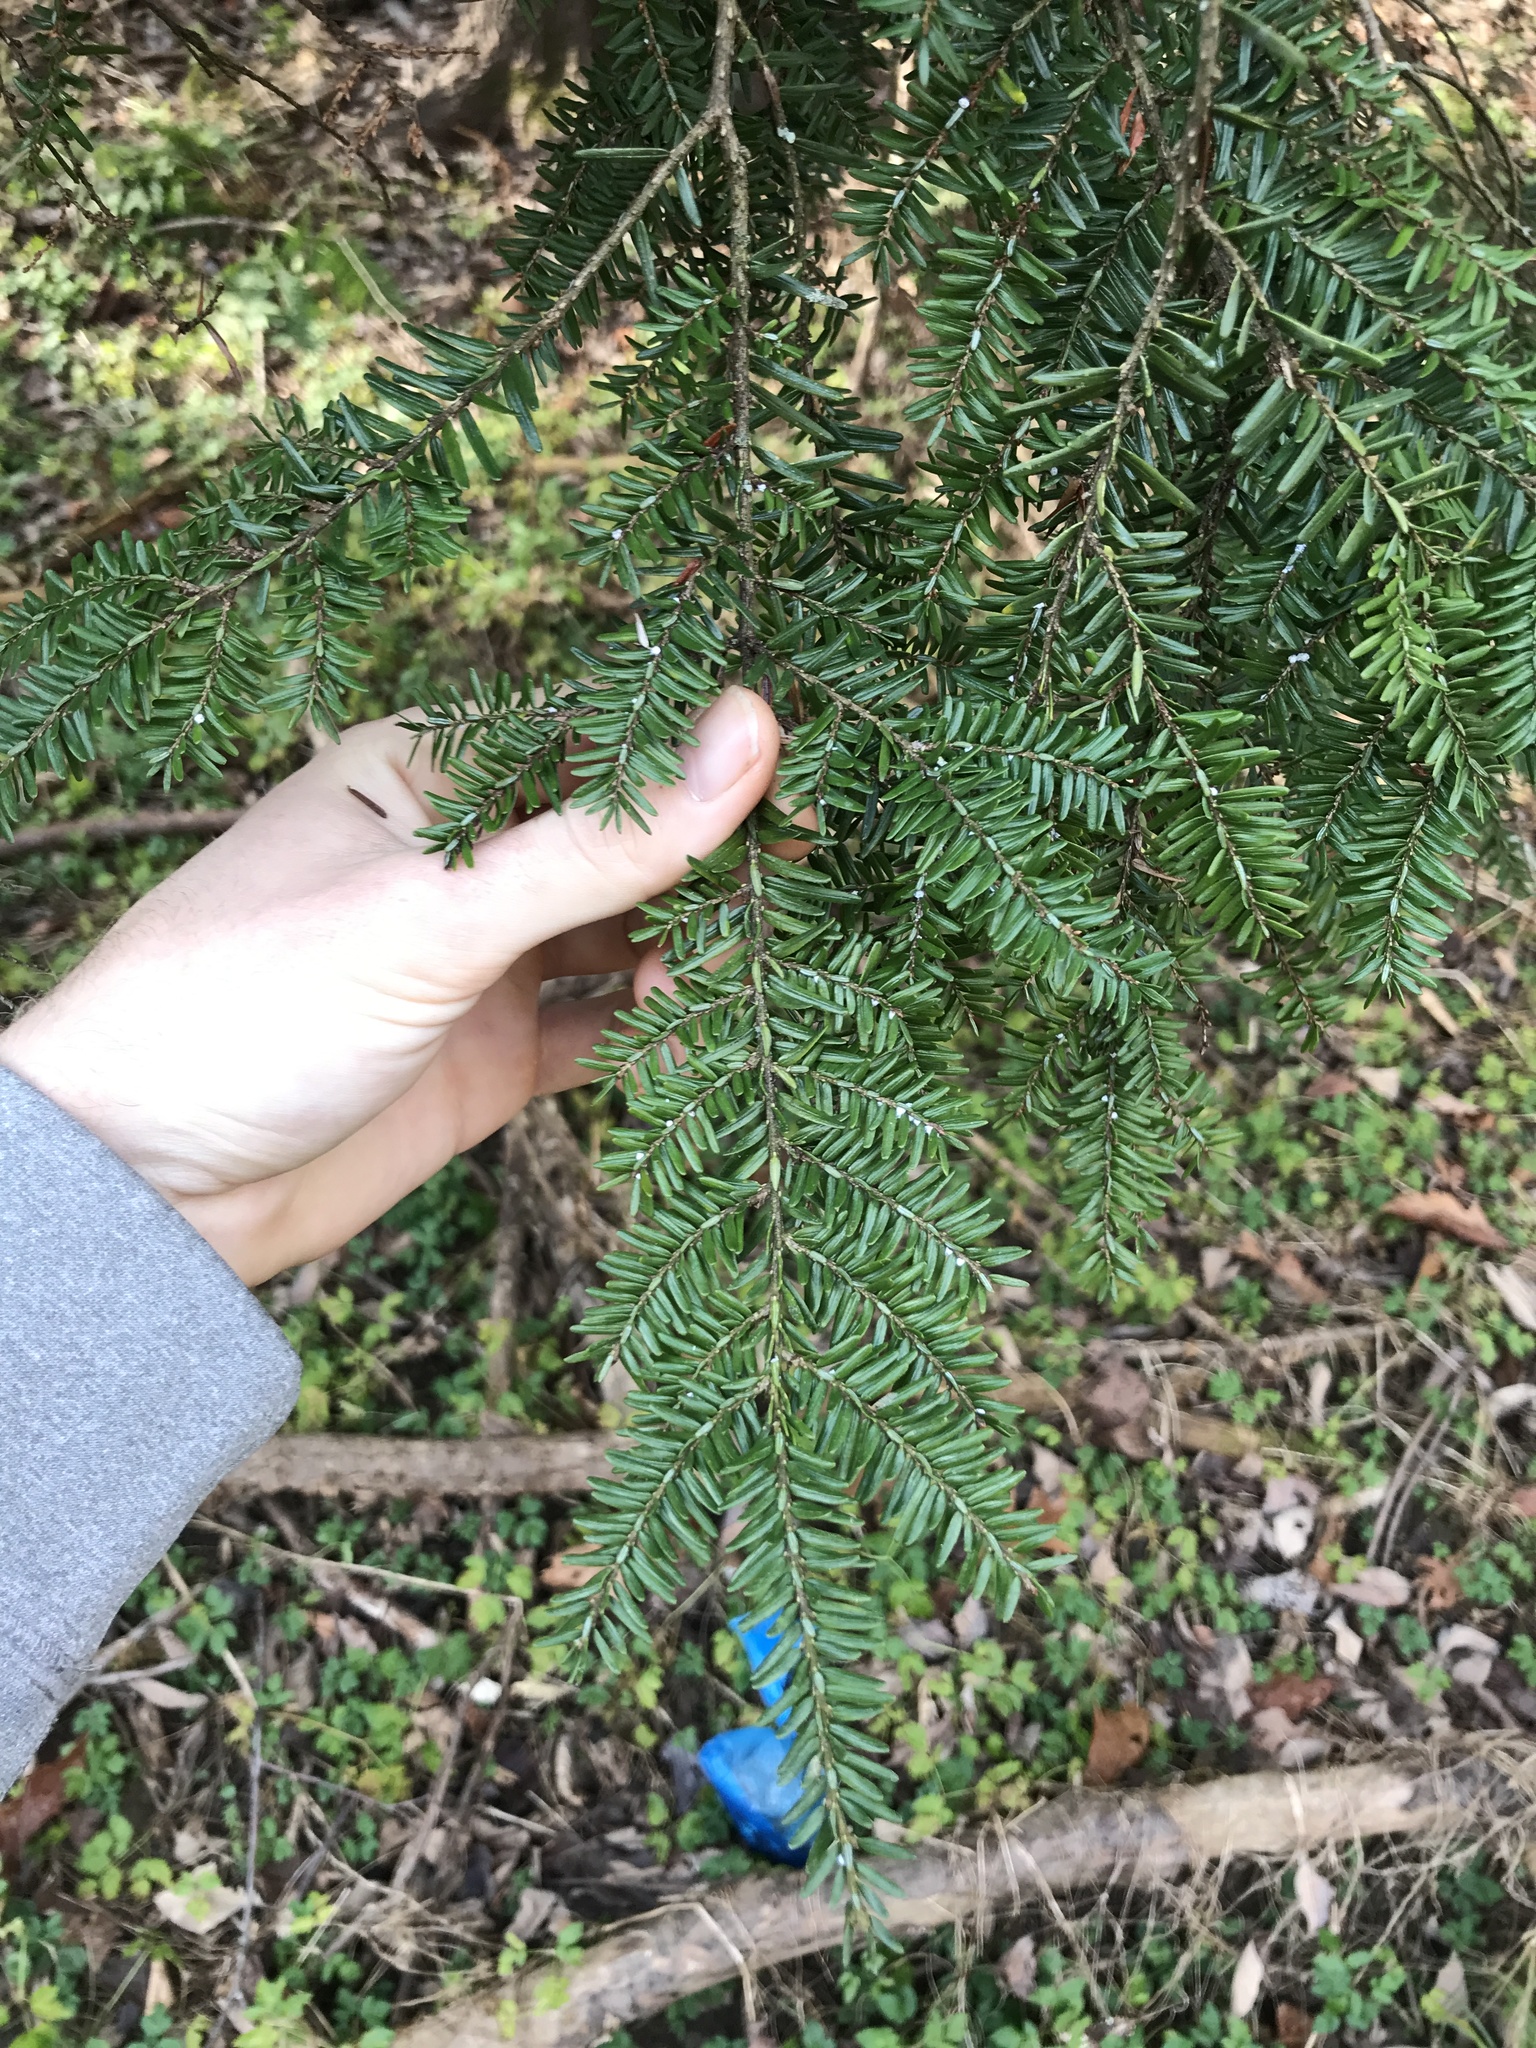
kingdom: Plantae
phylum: Tracheophyta
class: Pinopsida
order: Pinales
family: Pinaceae
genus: Tsuga
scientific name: Tsuga canadensis
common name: Eastern hemlock
